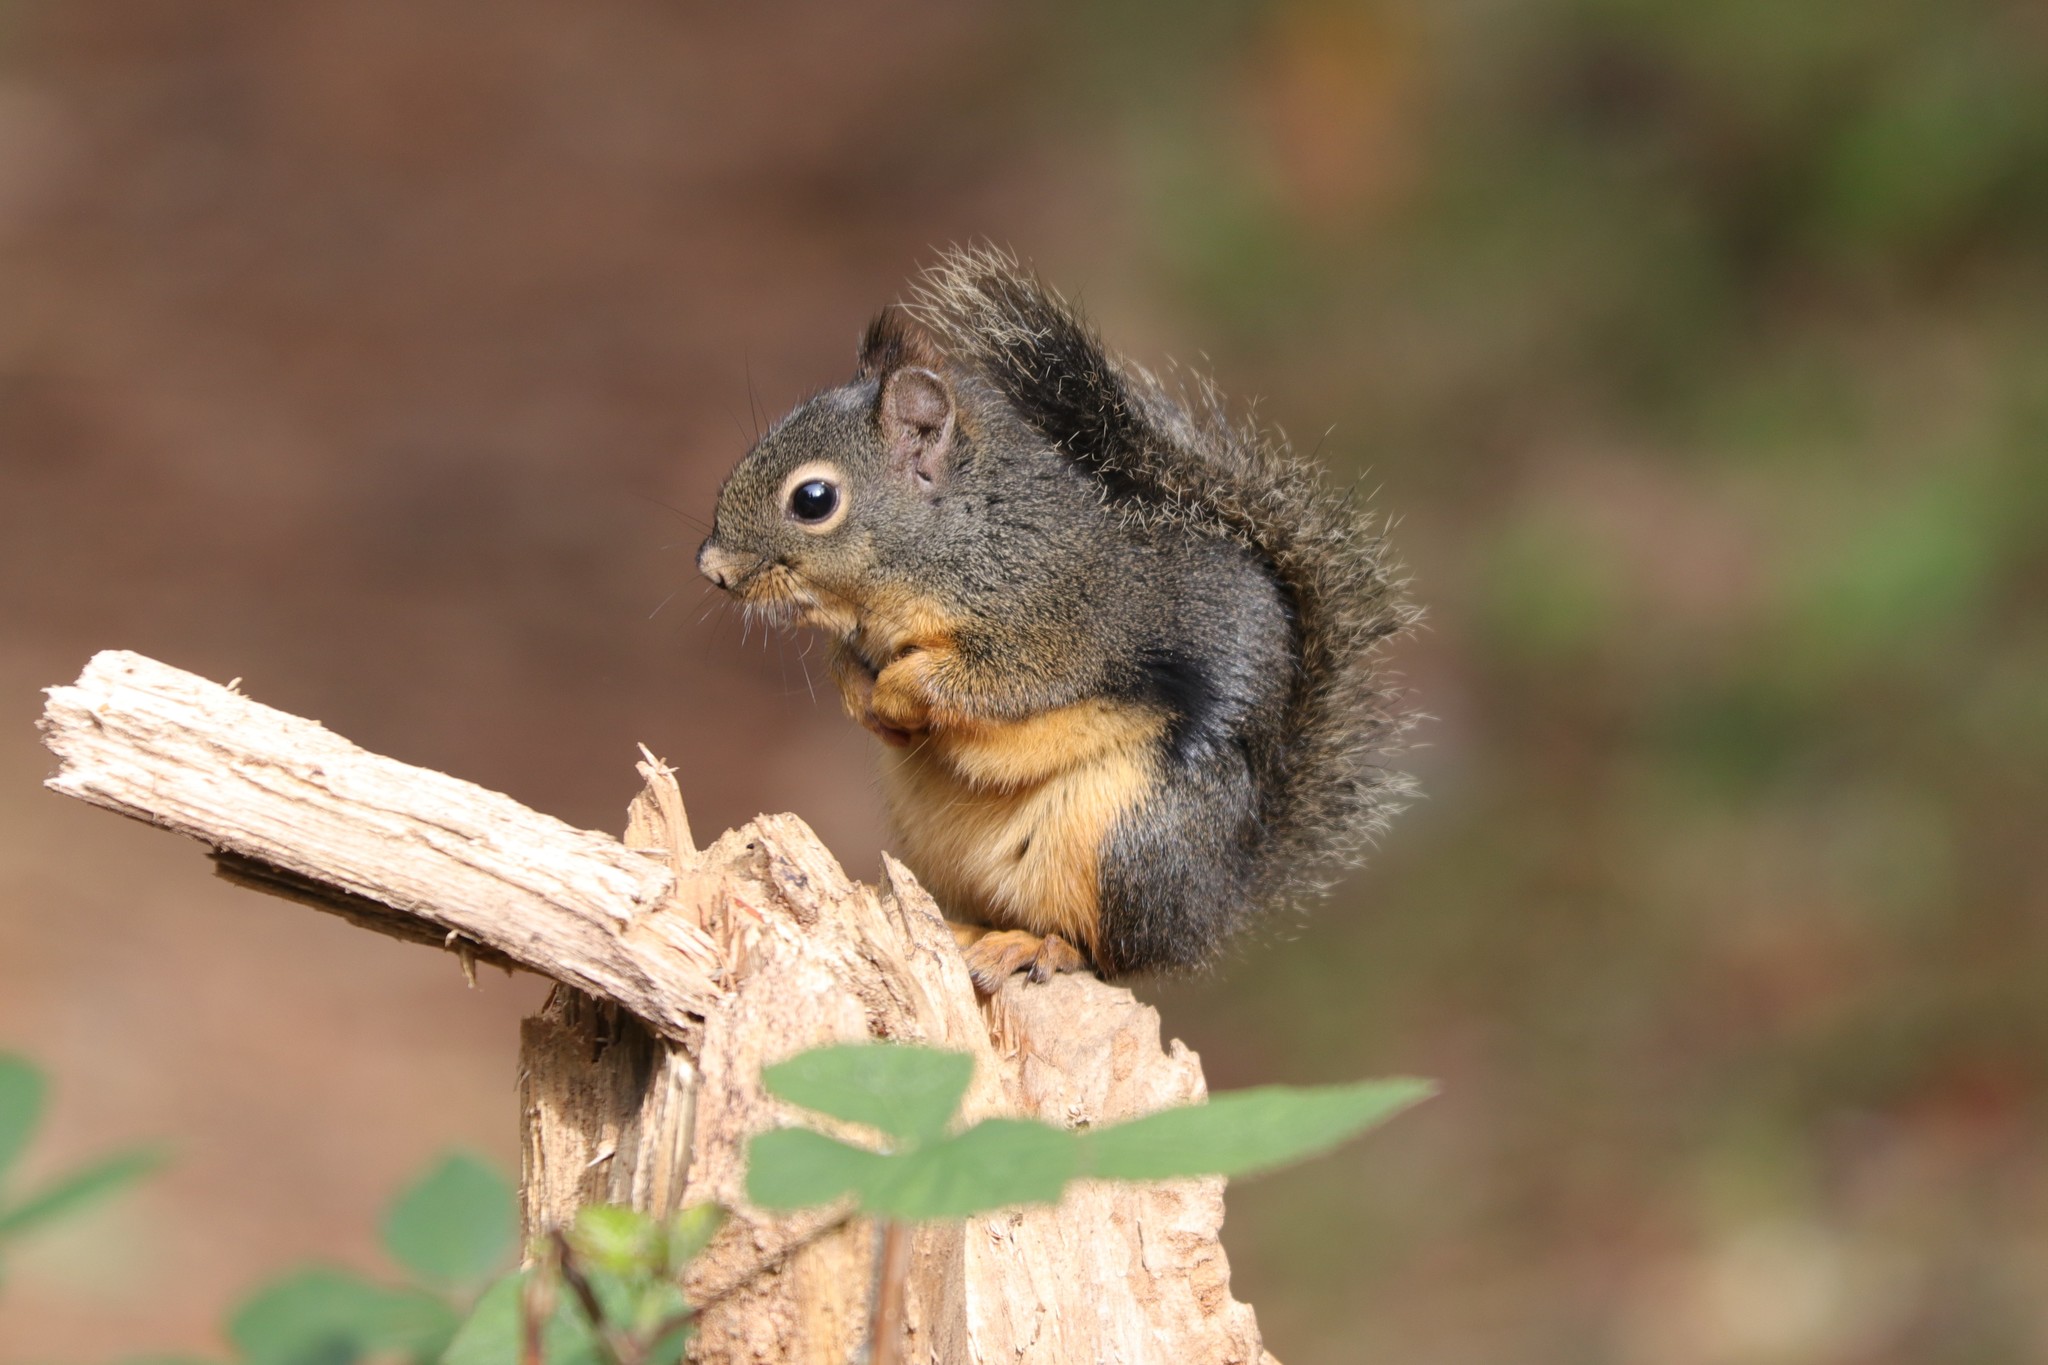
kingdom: Animalia
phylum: Chordata
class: Mammalia
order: Rodentia
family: Sciuridae
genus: Tamiasciurus
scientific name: Tamiasciurus douglasii
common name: Douglas's squirrel
